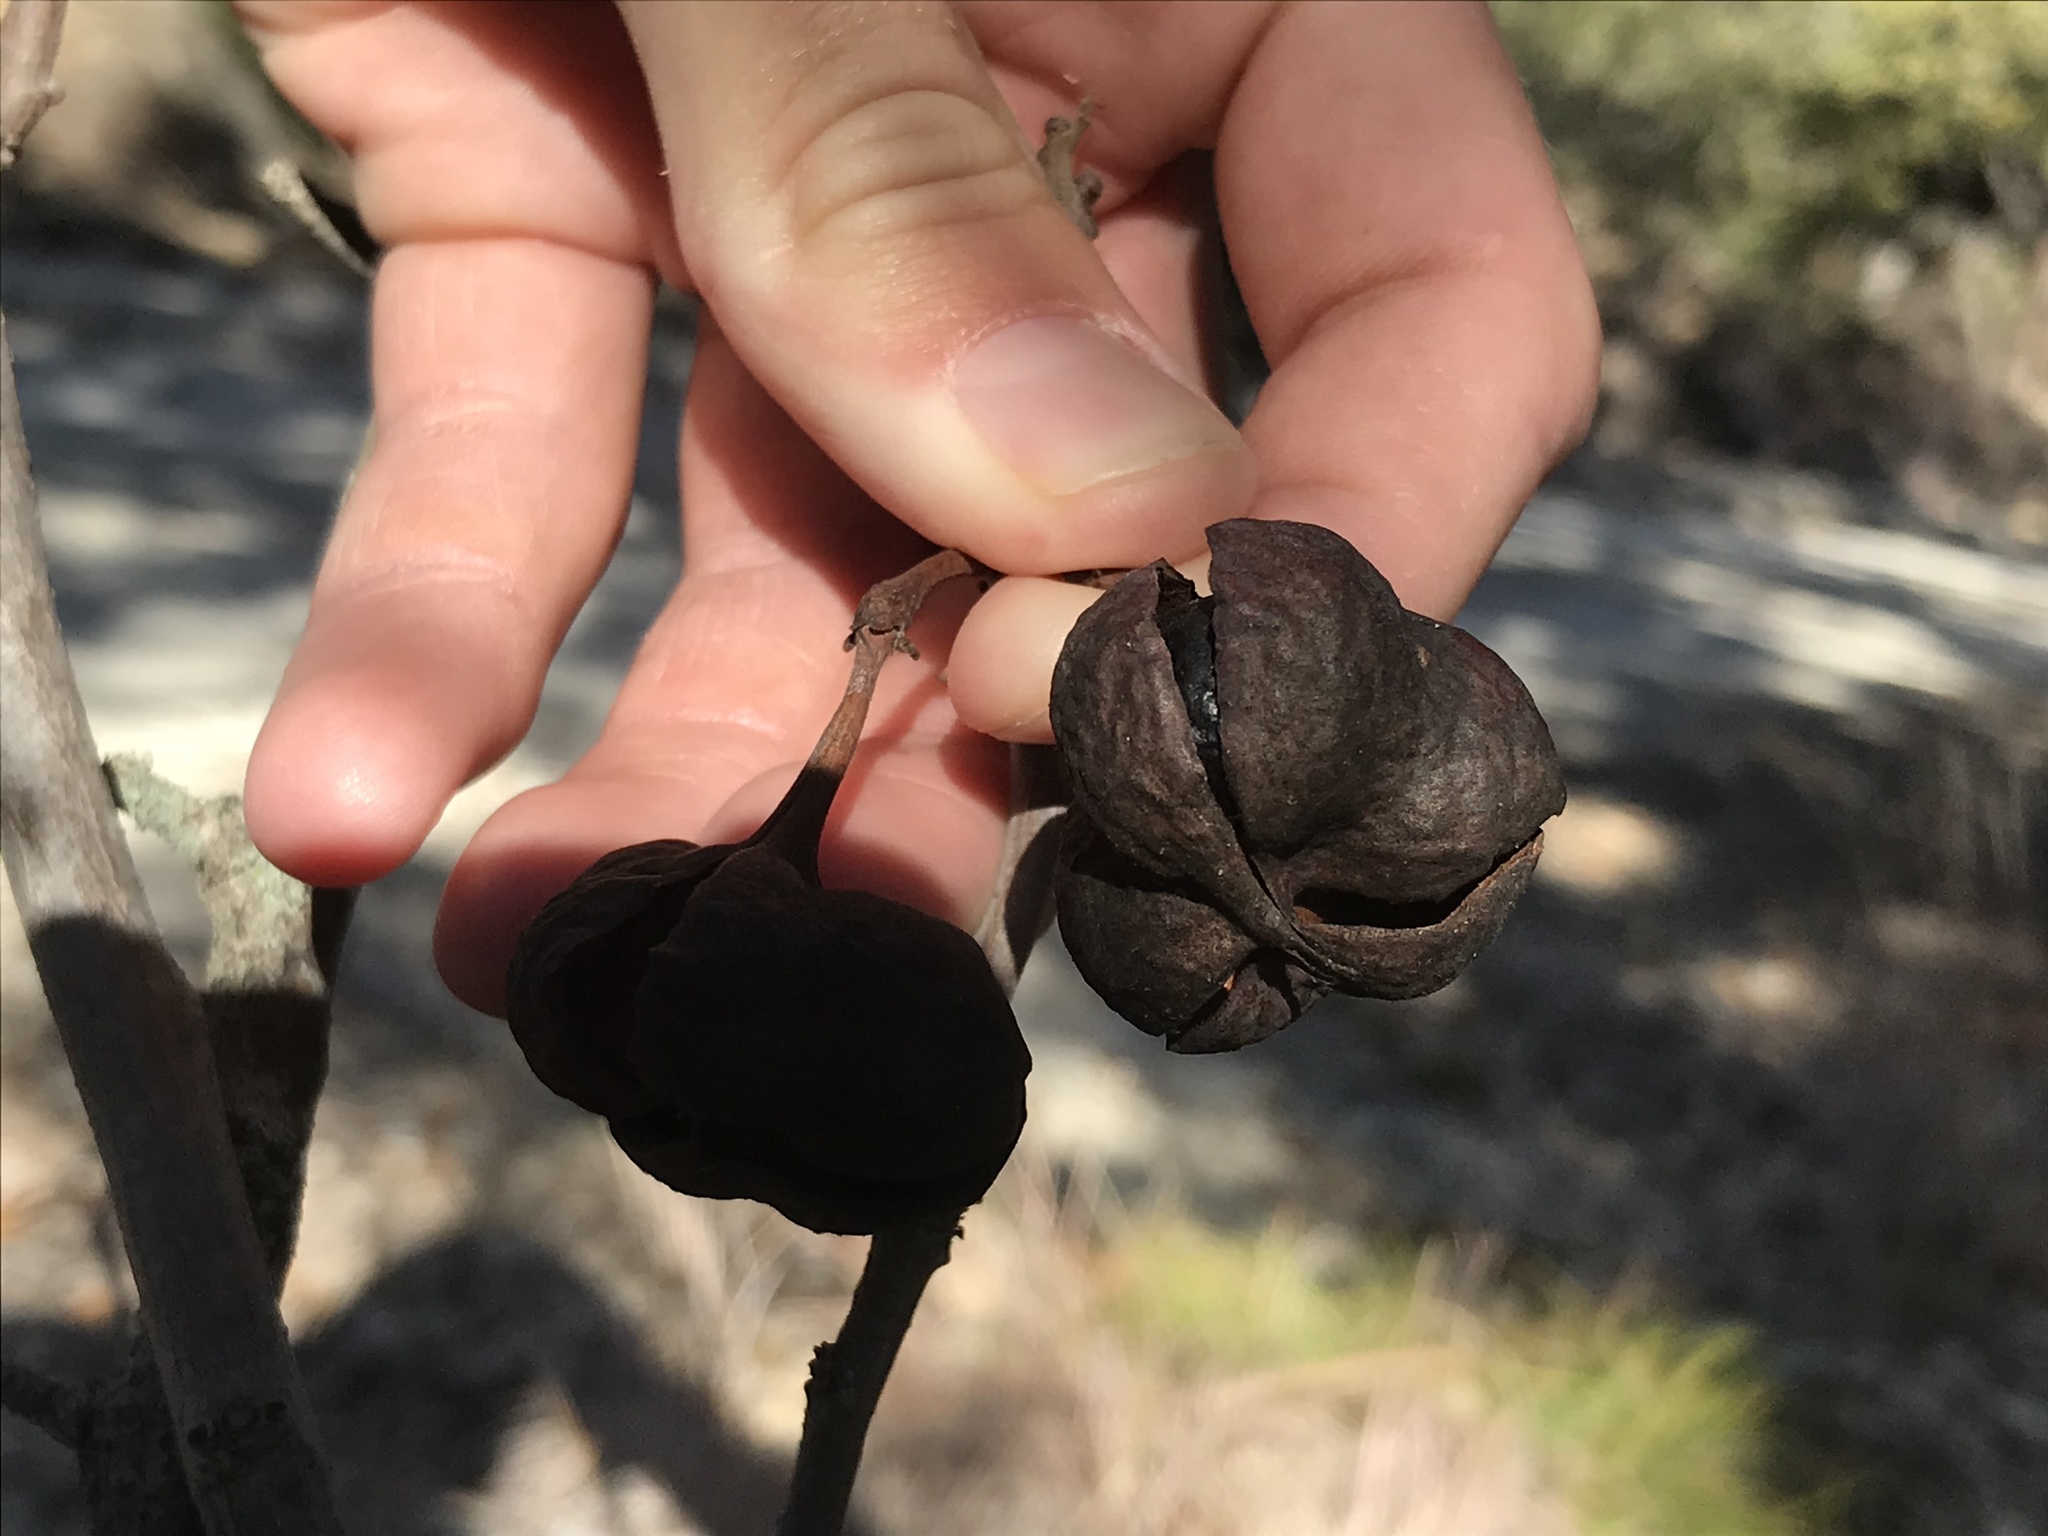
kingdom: Plantae
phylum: Tracheophyta
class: Magnoliopsida
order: Sapindales
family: Sapindaceae
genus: Ungnadia
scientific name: Ungnadia speciosa
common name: Texas-buckeye
